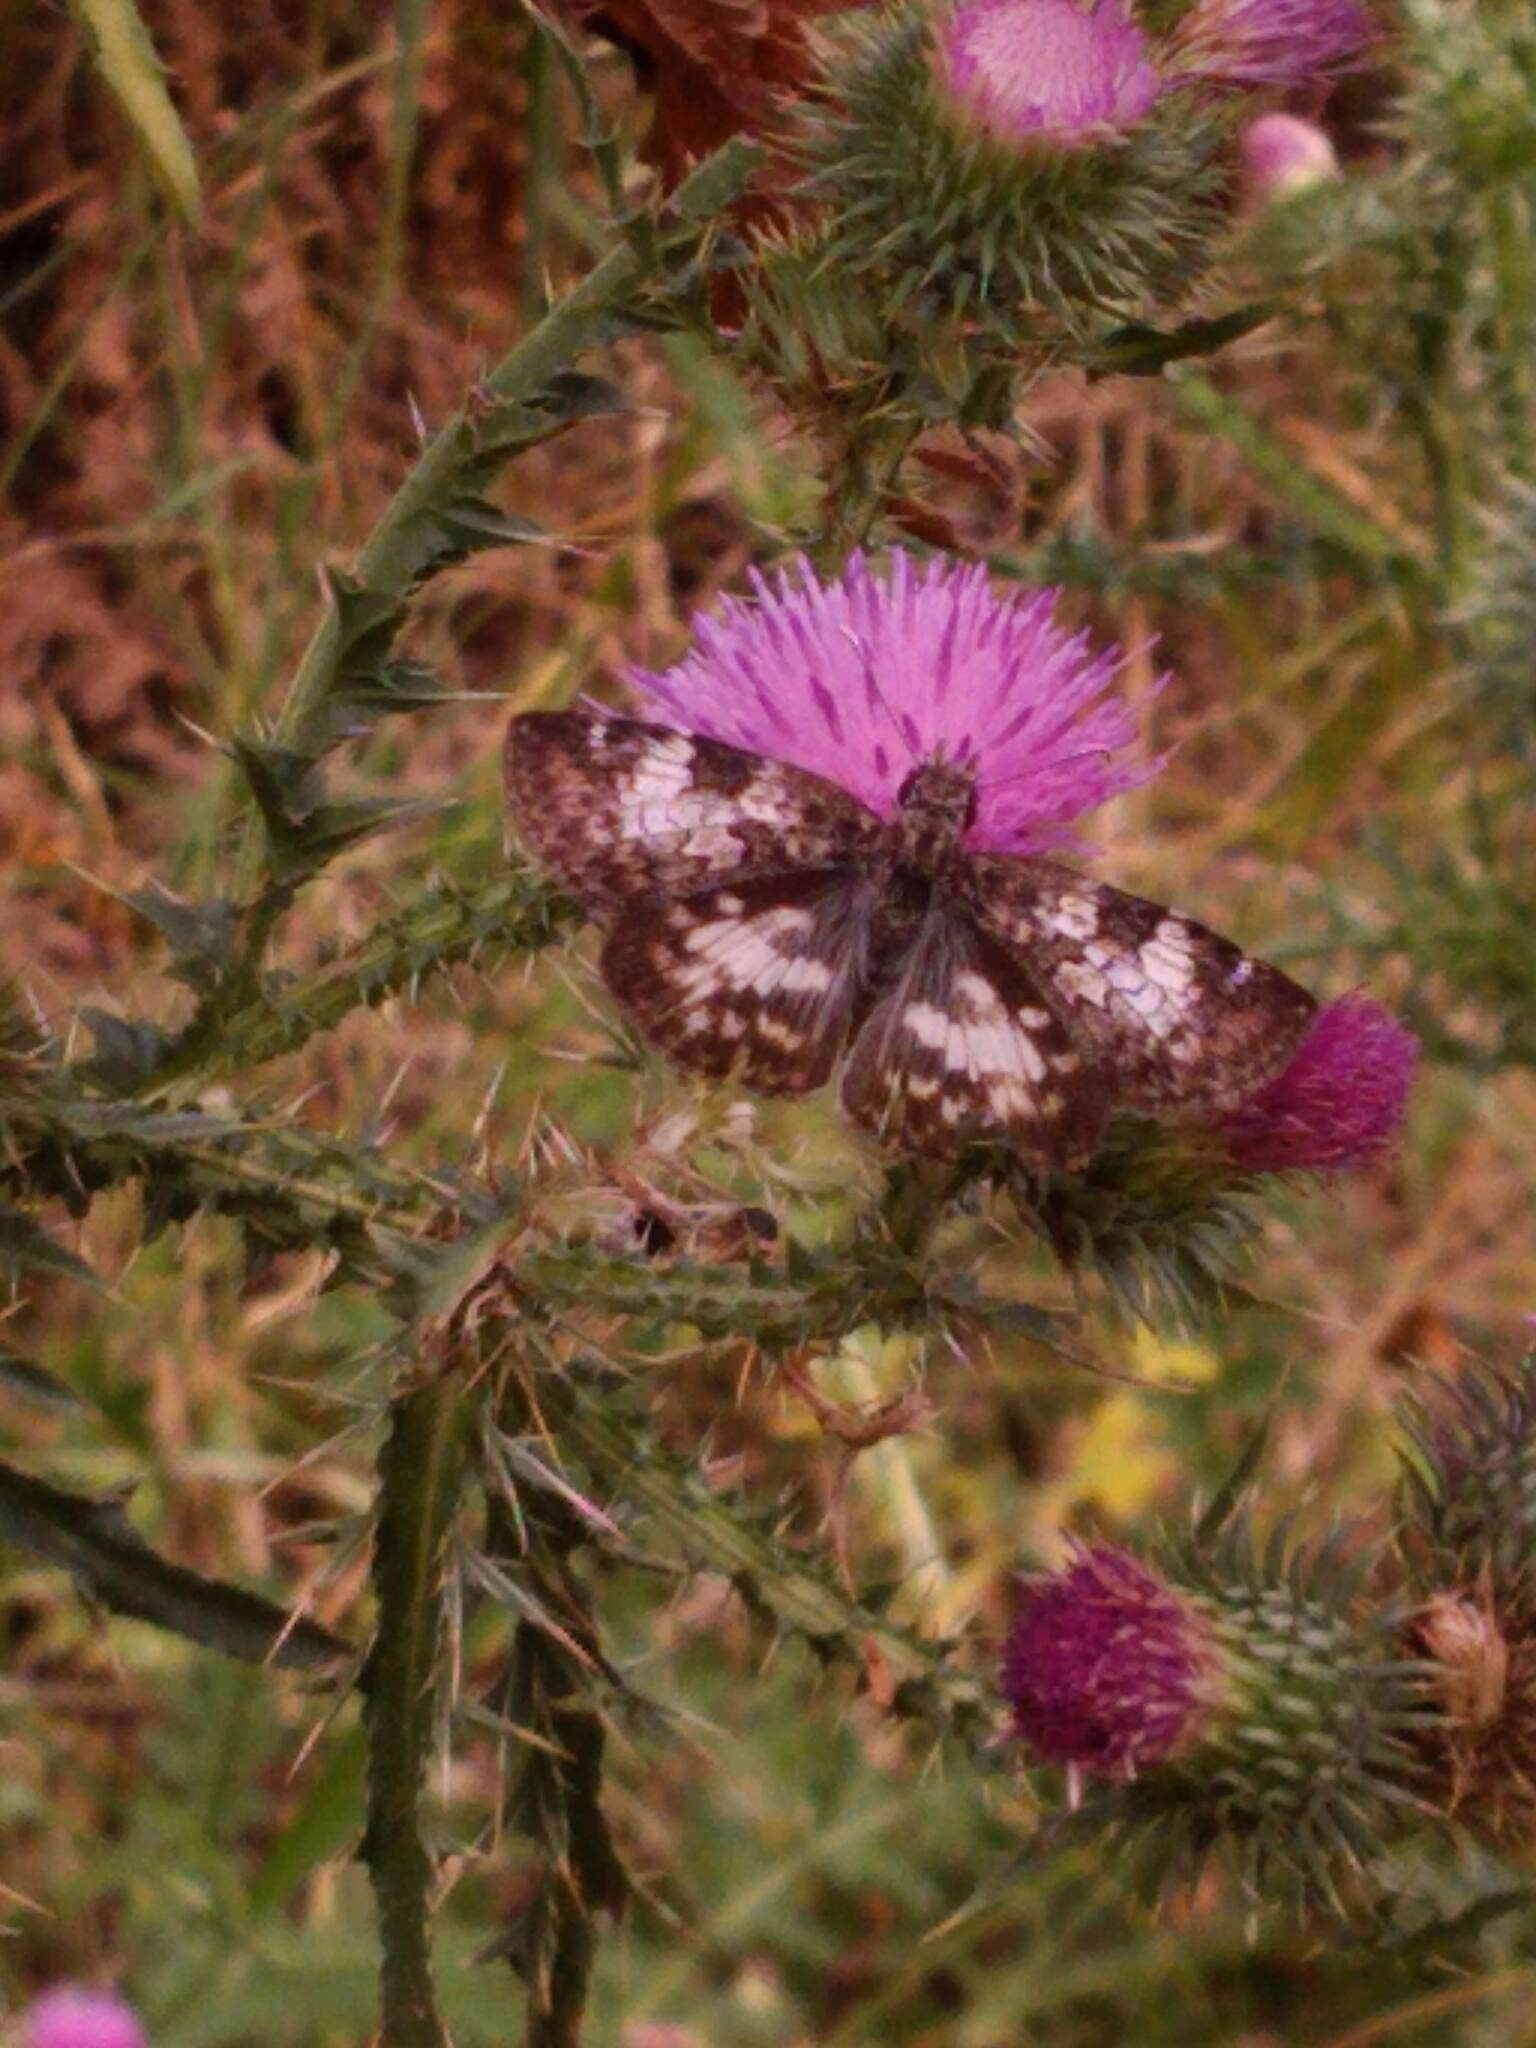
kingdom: Animalia
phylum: Arthropoda
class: Insecta
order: Lepidoptera
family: Hesperiidae
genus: Chiomara
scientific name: Chiomara asychis
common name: White-patterned skipper
